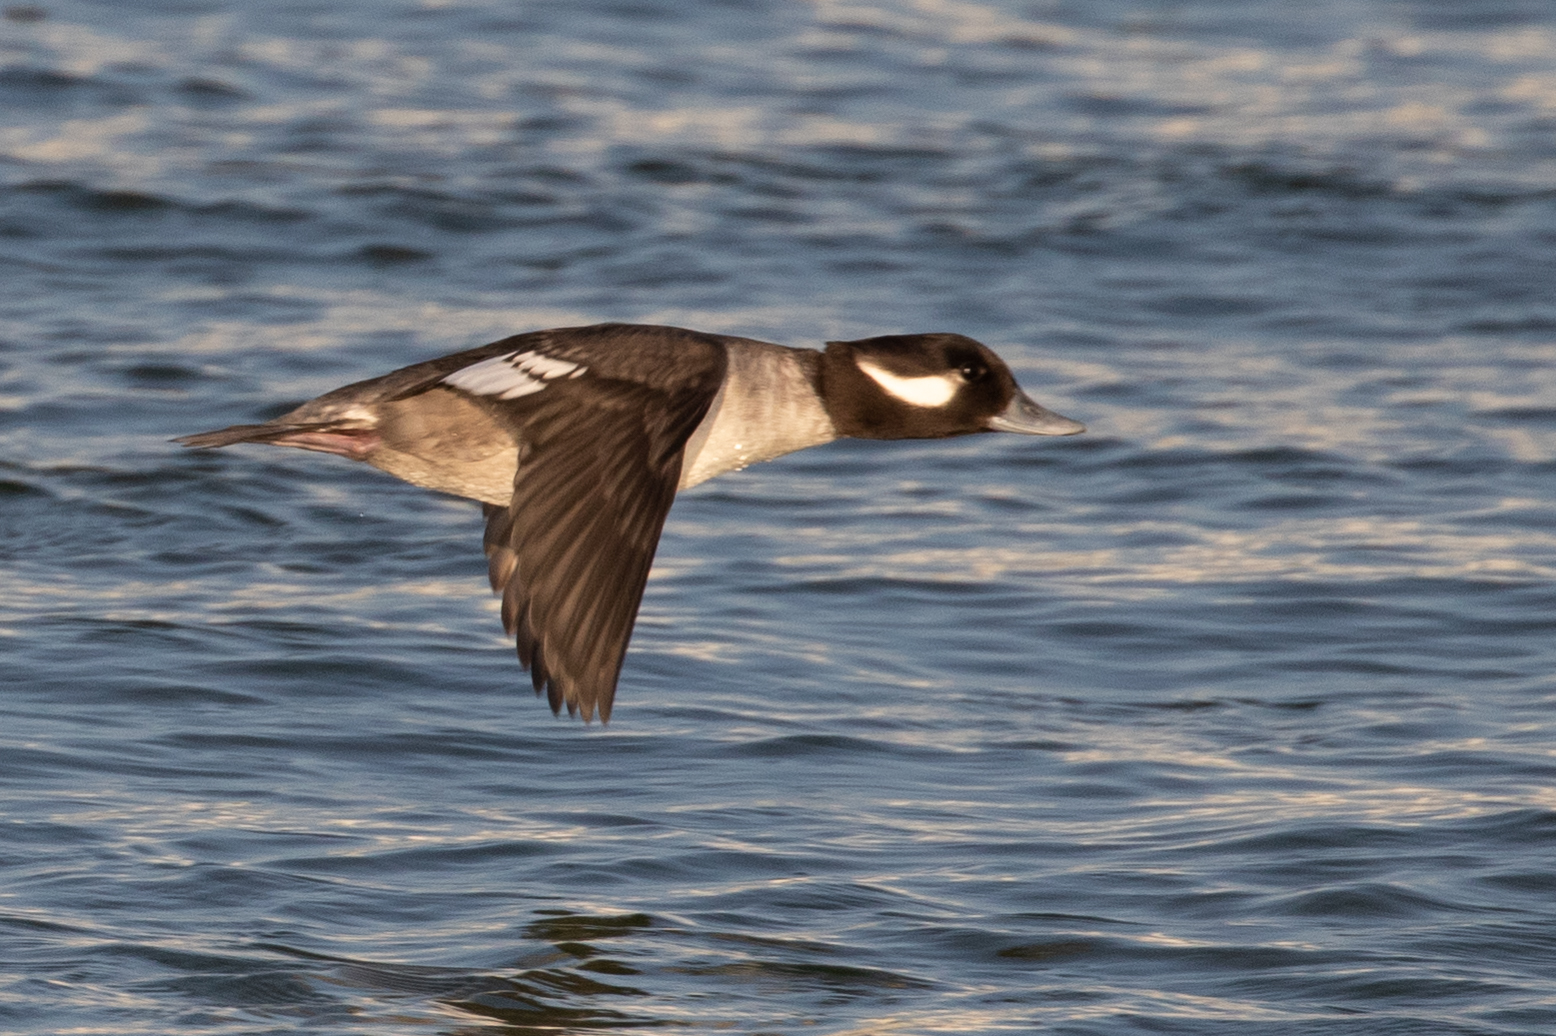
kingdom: Animalia
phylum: Chordata
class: Aves
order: Anseriformes
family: Anatidae
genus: Bucephala
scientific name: Bucephala albeola
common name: Bufflehead
